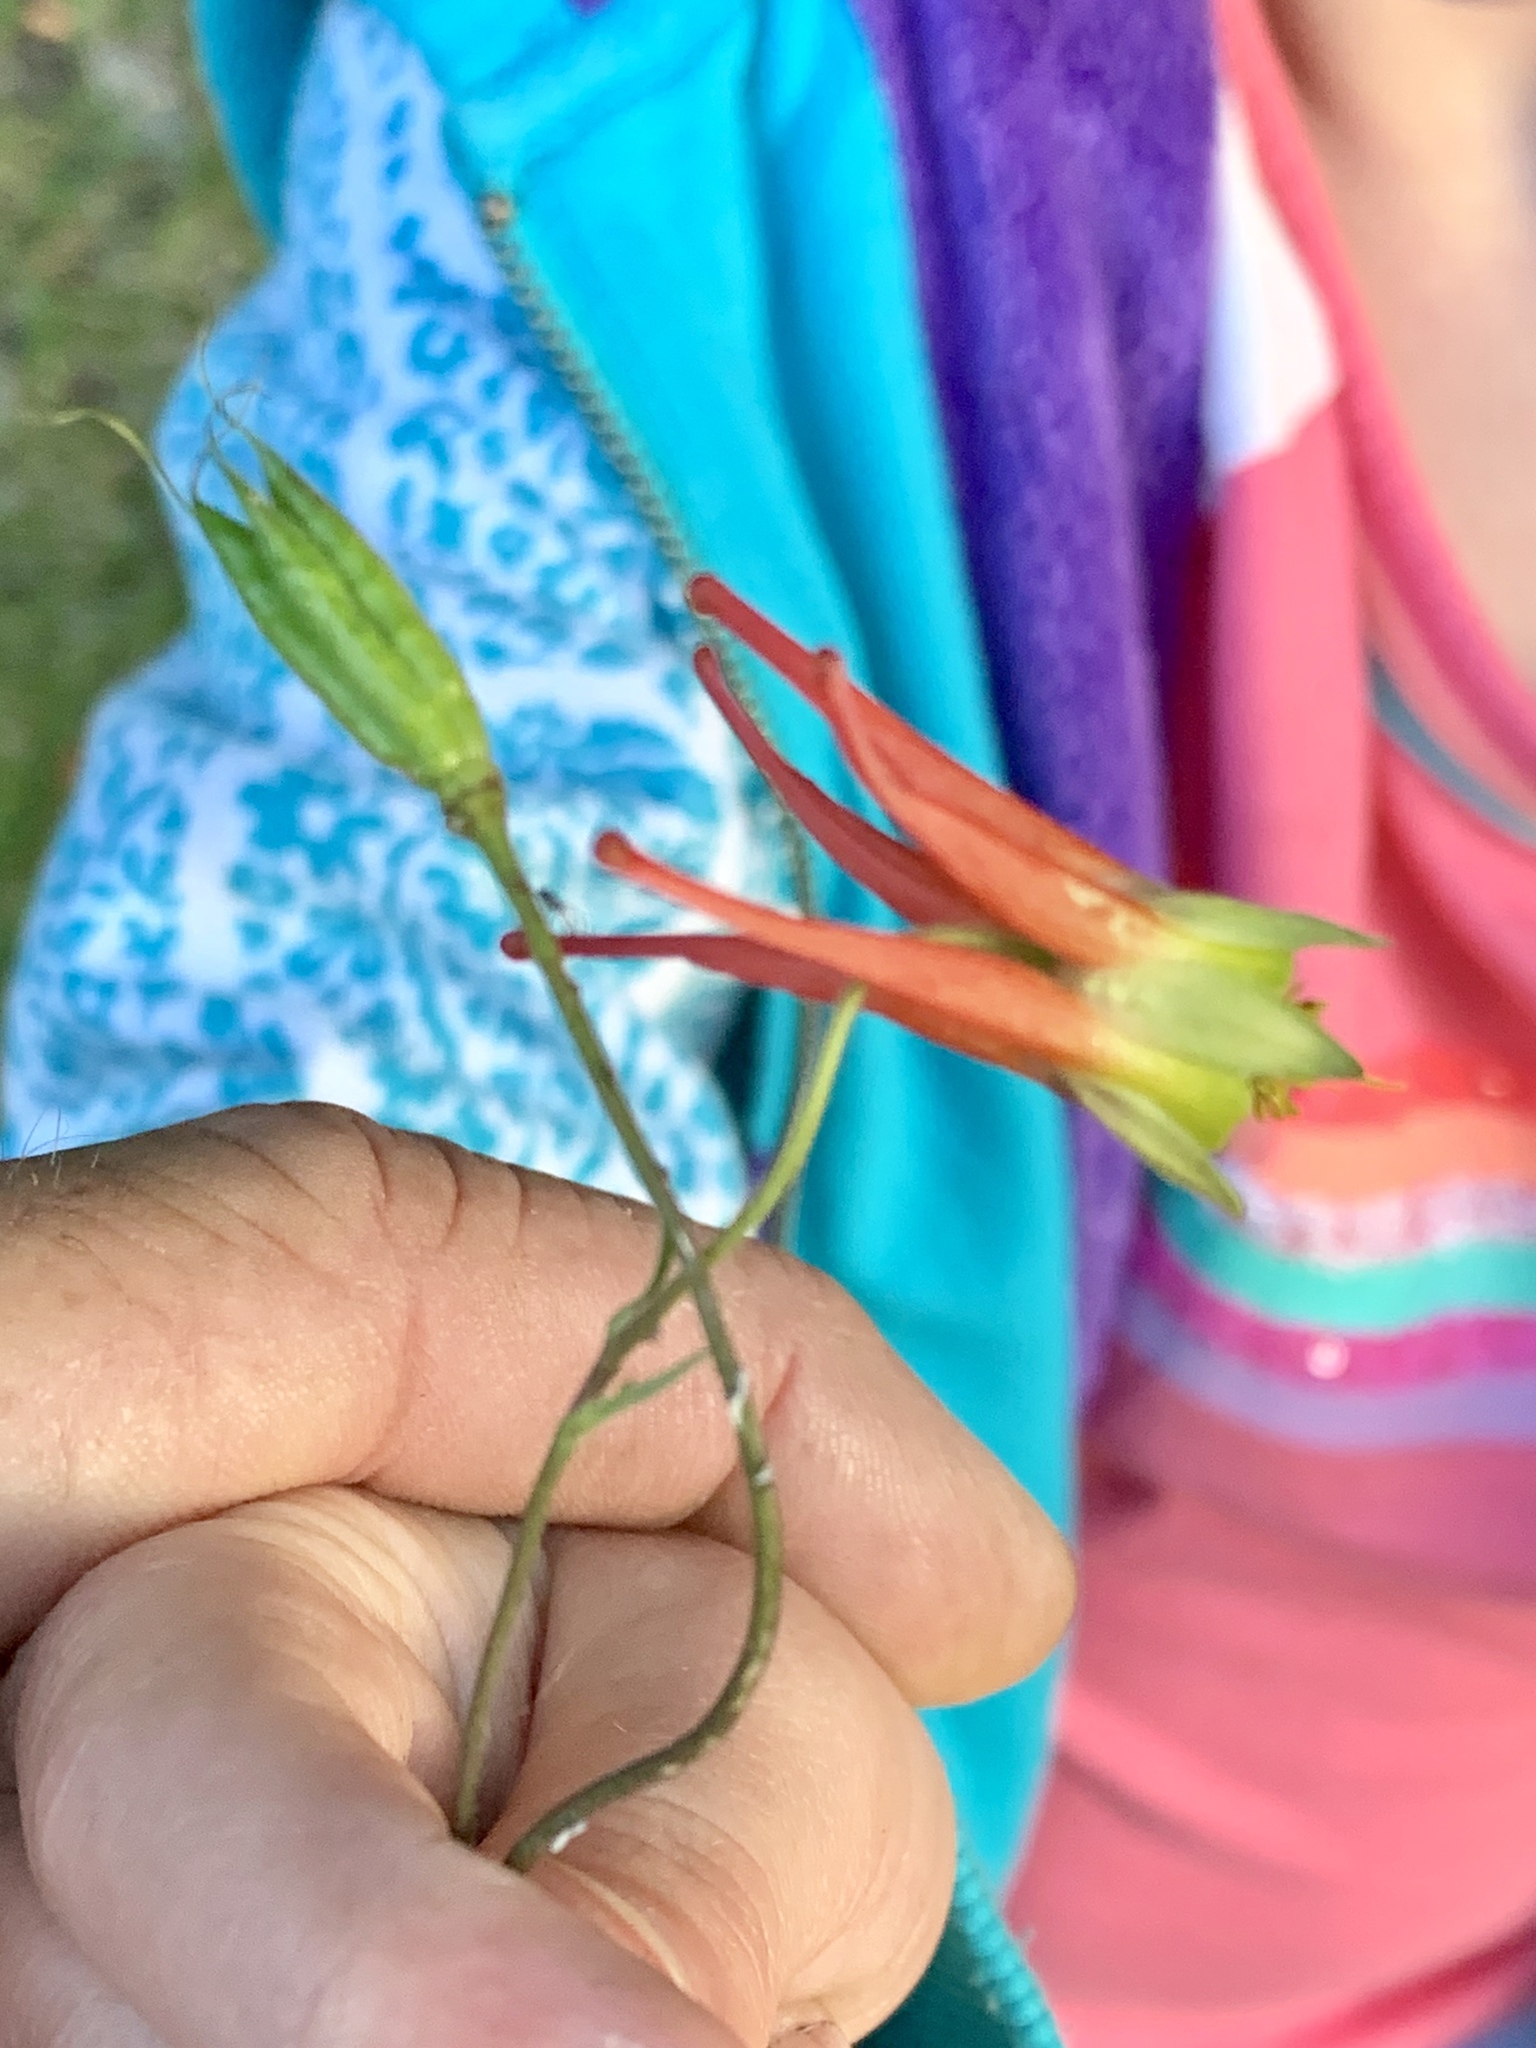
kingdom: Plantae
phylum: Tracheophyta
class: Magnoliopsida
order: Ranunculales
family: Ranunculaceae
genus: Aquilegia
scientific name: Aquilegia elegantula
